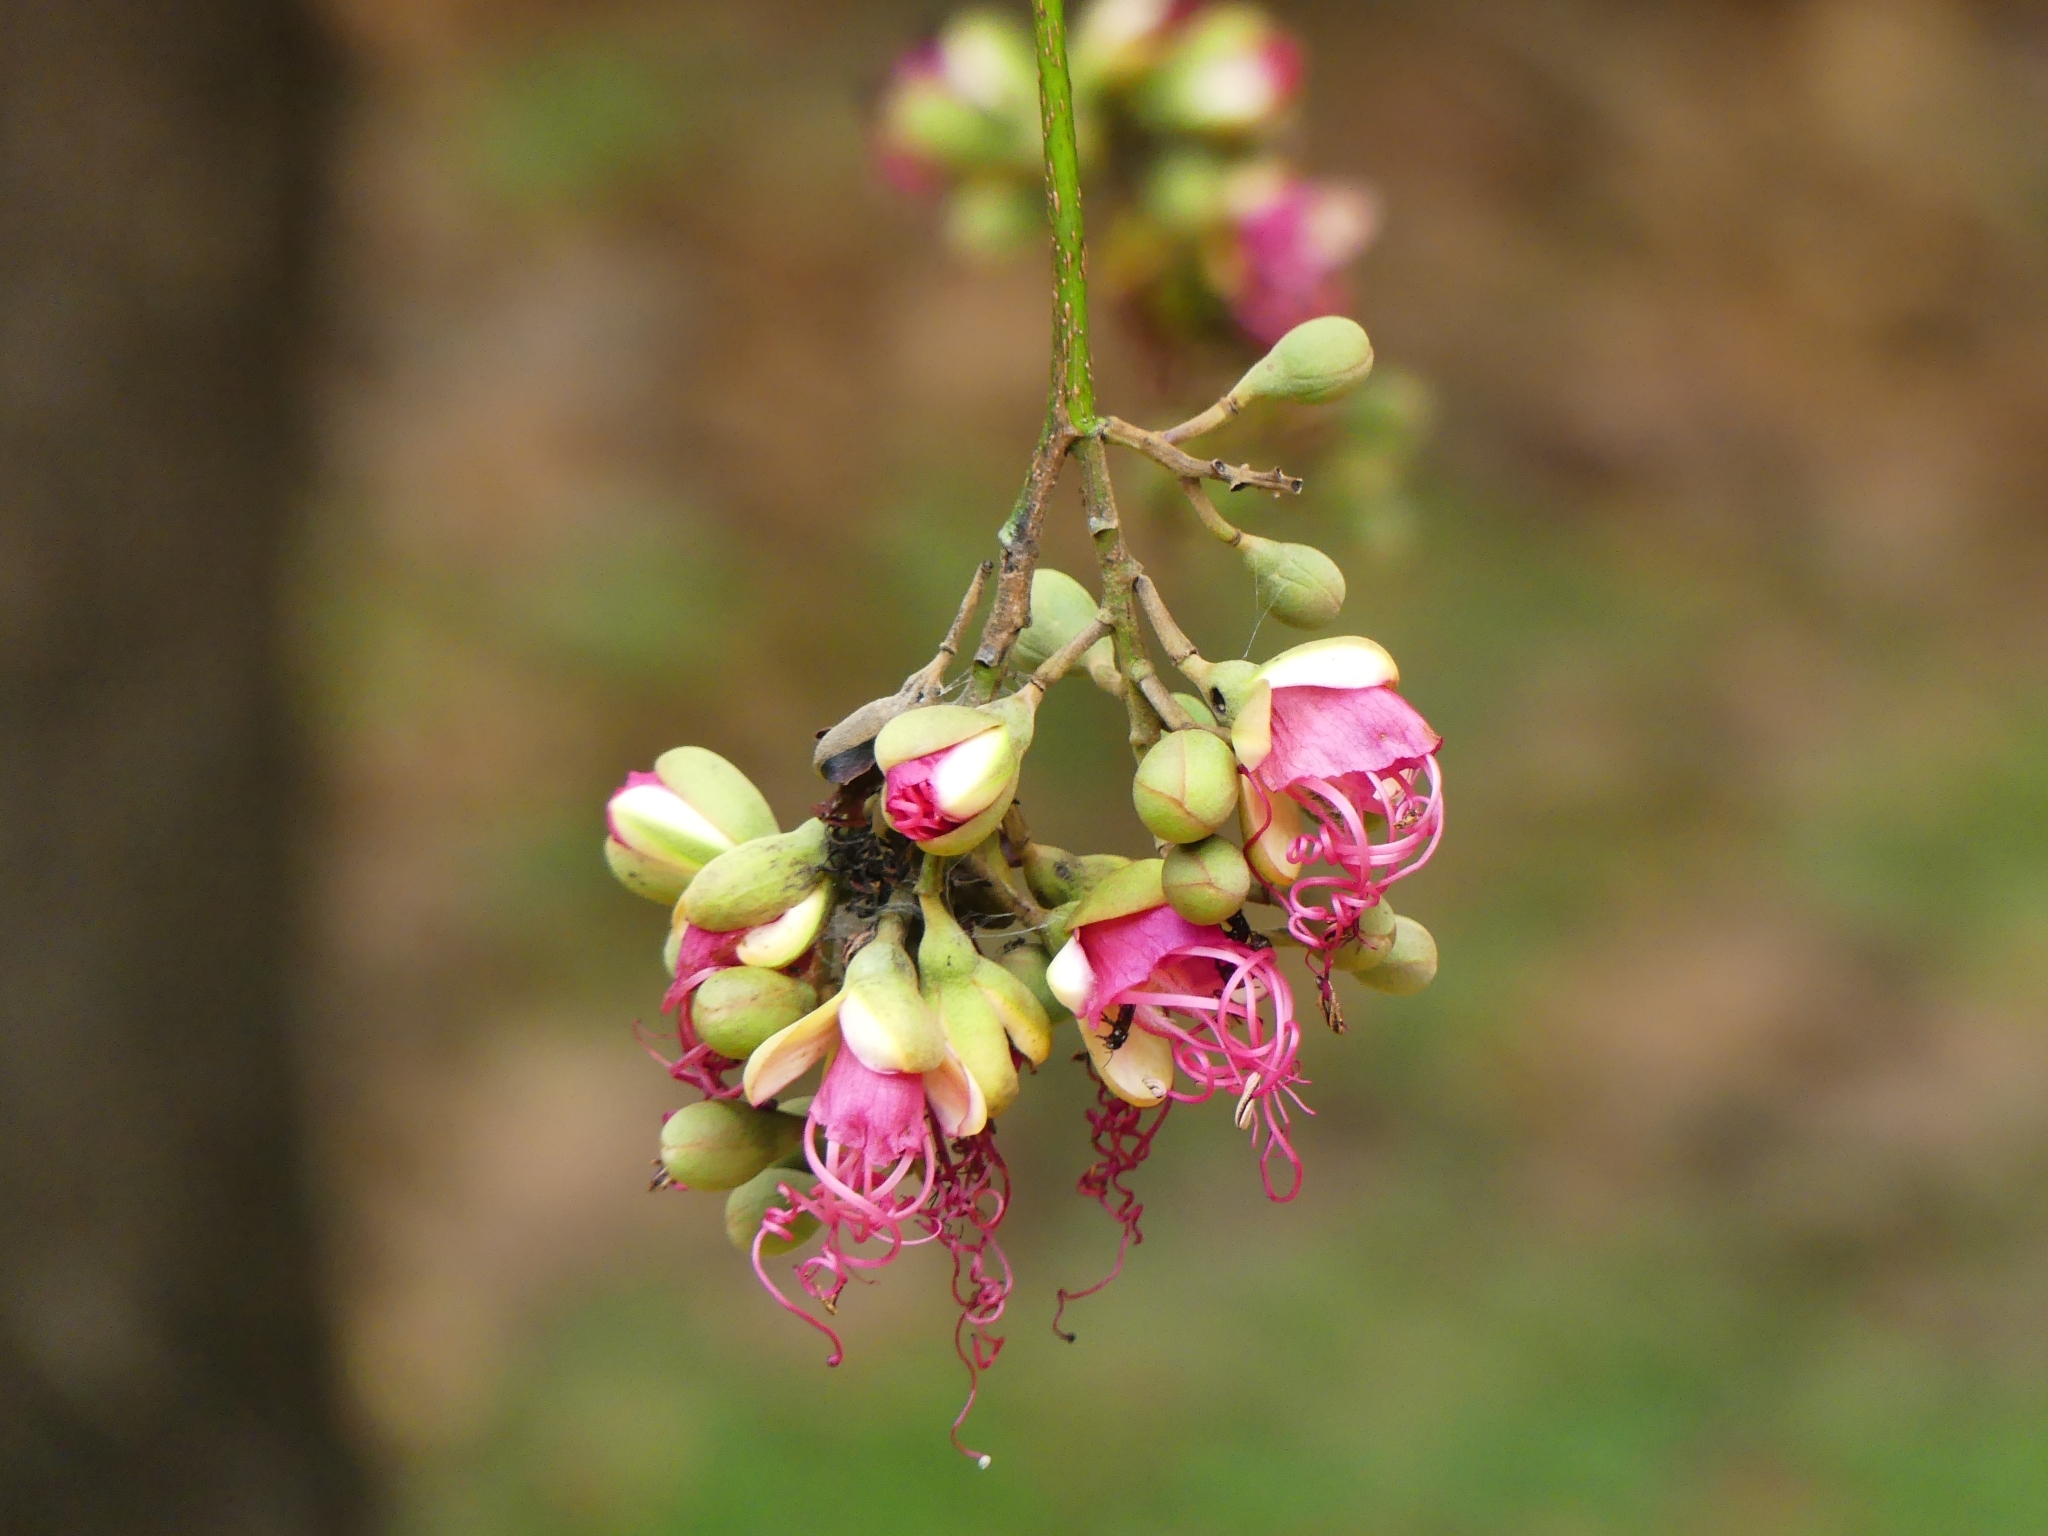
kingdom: Plantae
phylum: Tracheophyta
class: Magnoliopsida
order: Fabales
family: Fabaceae
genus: Eperua
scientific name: Eperua falcata
